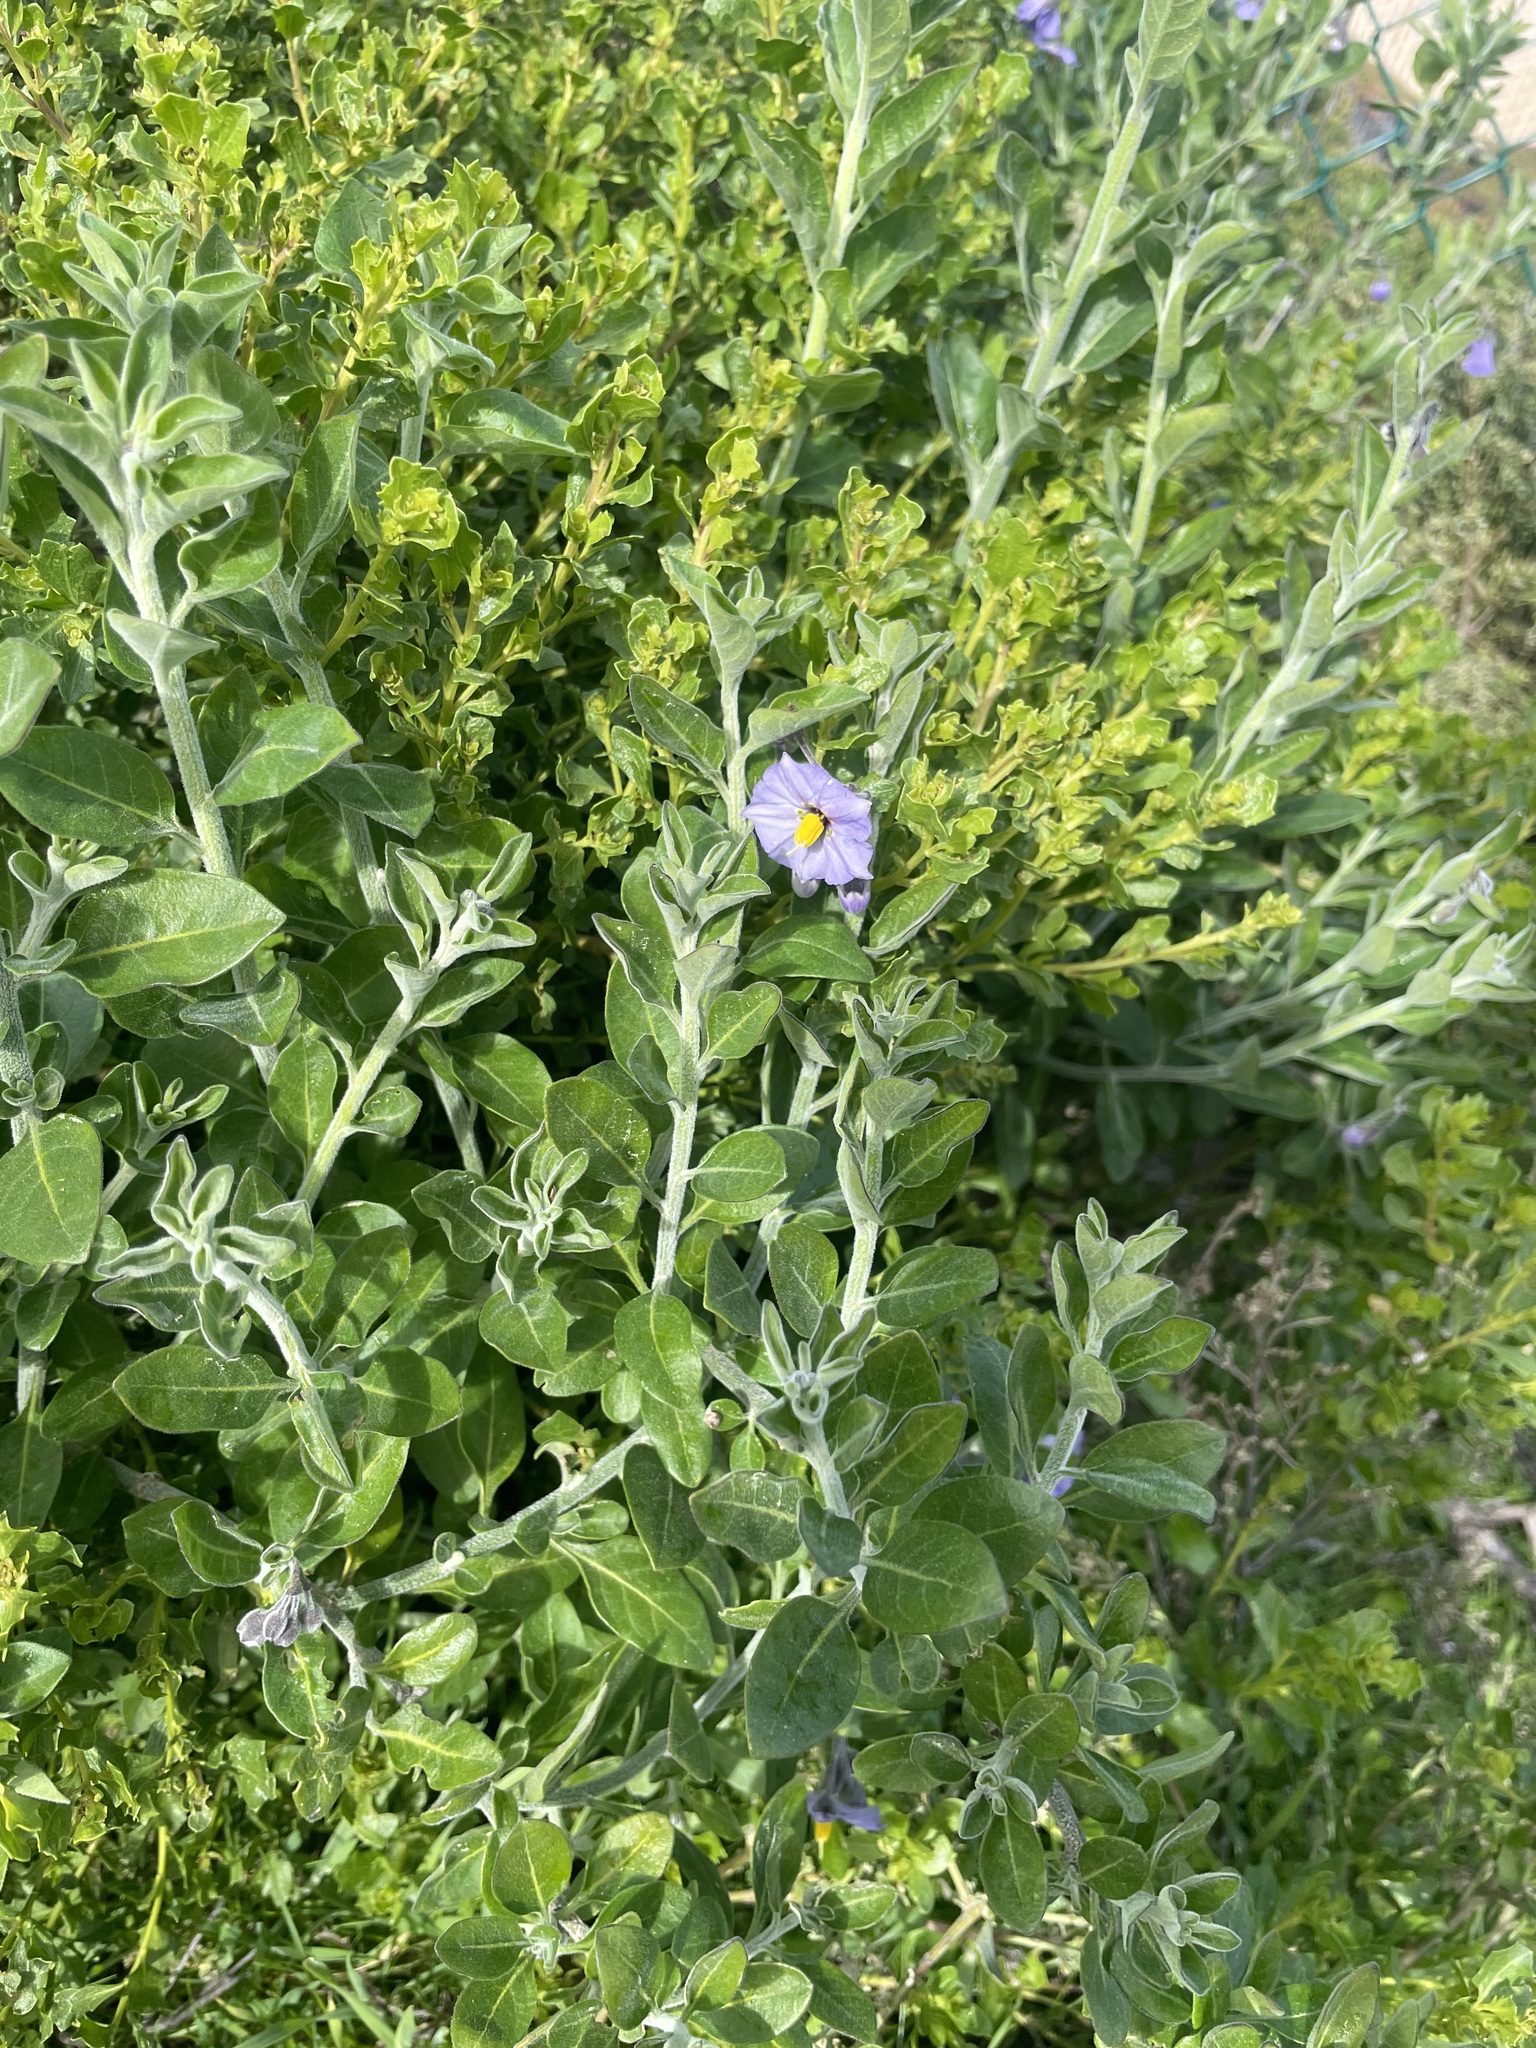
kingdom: Plantae
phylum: Tracheophyta
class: Magnoliopsida
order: Solanales
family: Solanaceae
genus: Solanum
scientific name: Solanum umbelliferum
